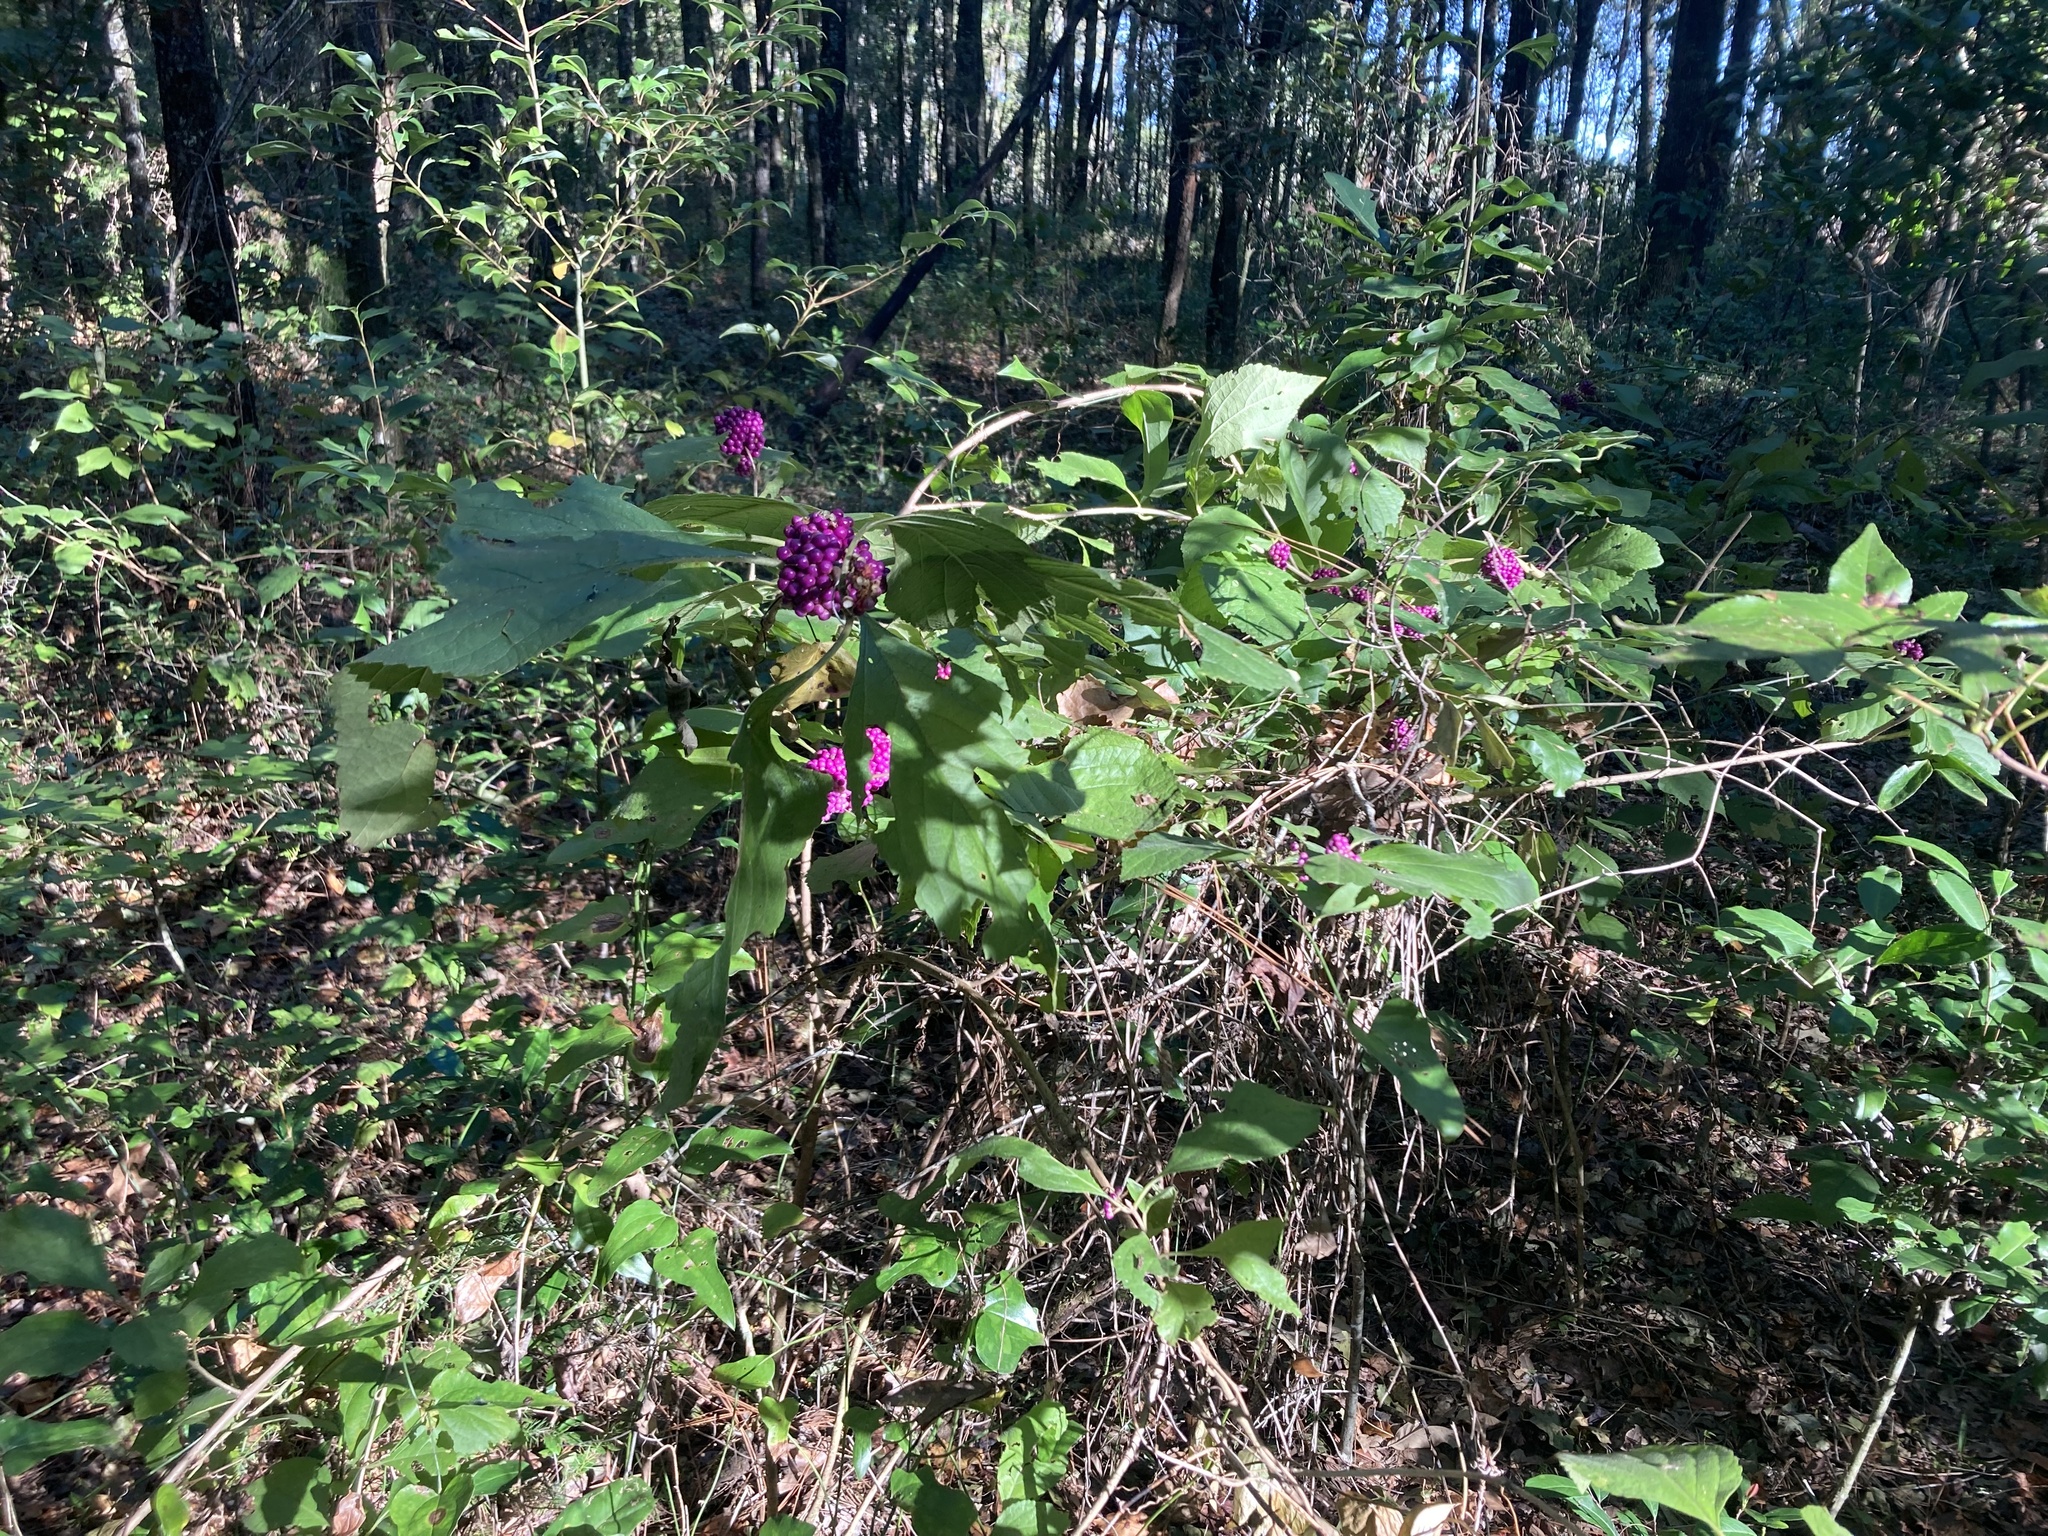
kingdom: Plantae
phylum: Tracheophyta
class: Magnoliopsida
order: Lamiales
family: Lamiaceae
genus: Callicarpa
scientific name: Callicarpa americana
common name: American beautyberry
